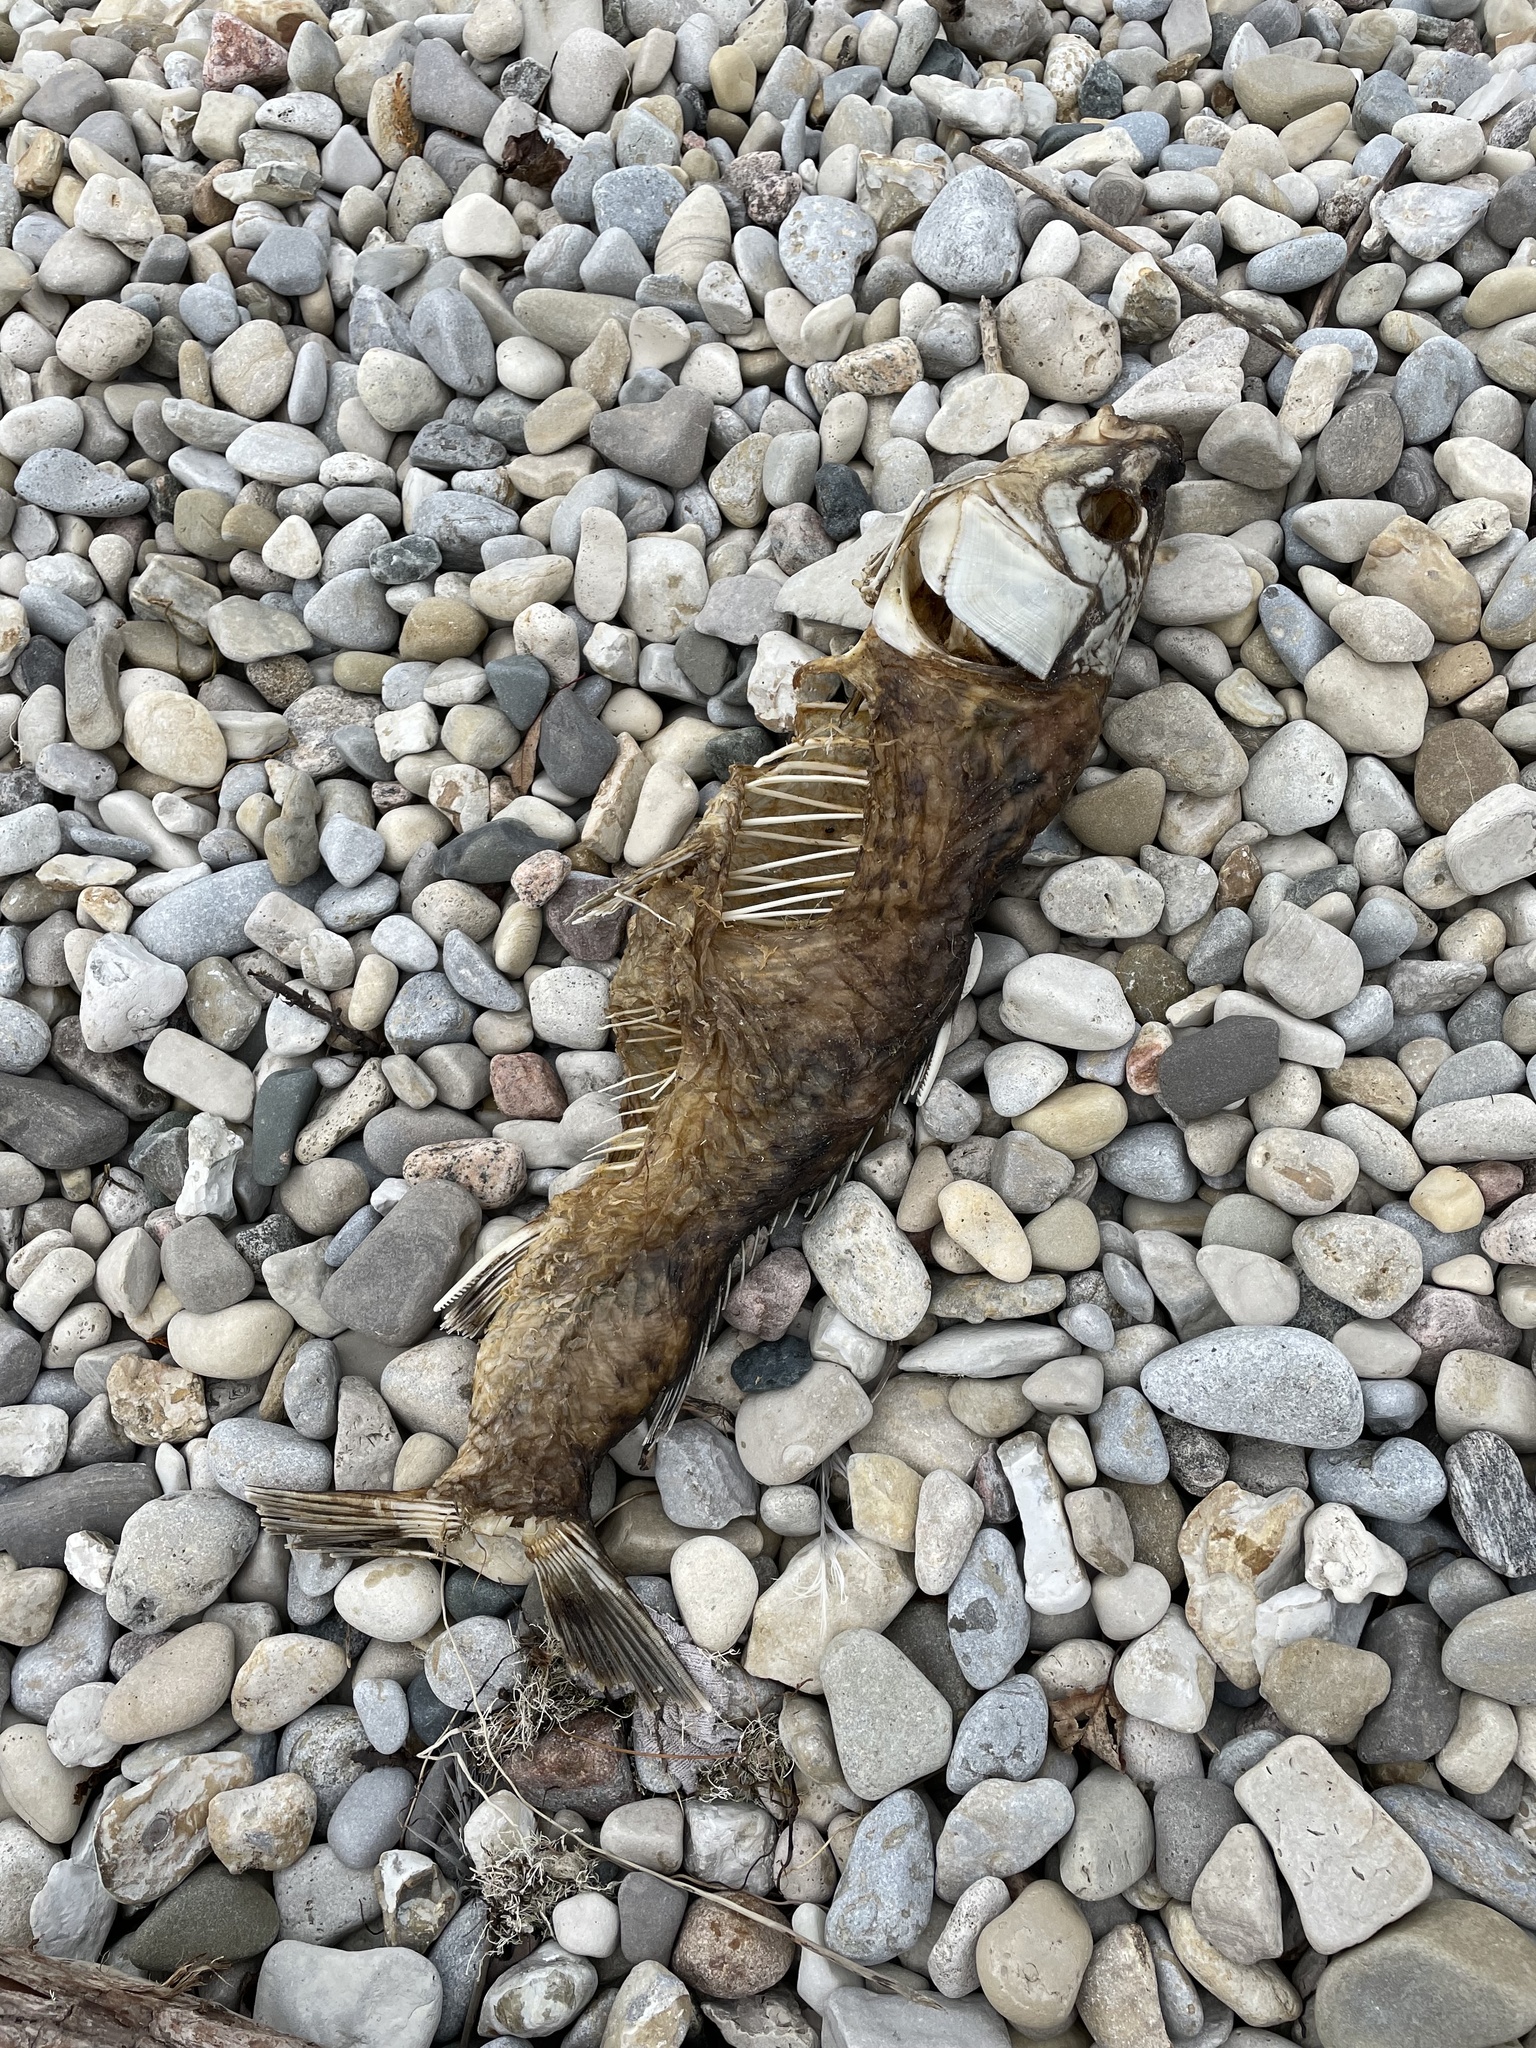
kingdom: Animalia
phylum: Chordata
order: Cypriniformes
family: Cyprinidae
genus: Cyprinus
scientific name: Cyprinus carpio
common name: Common carp
